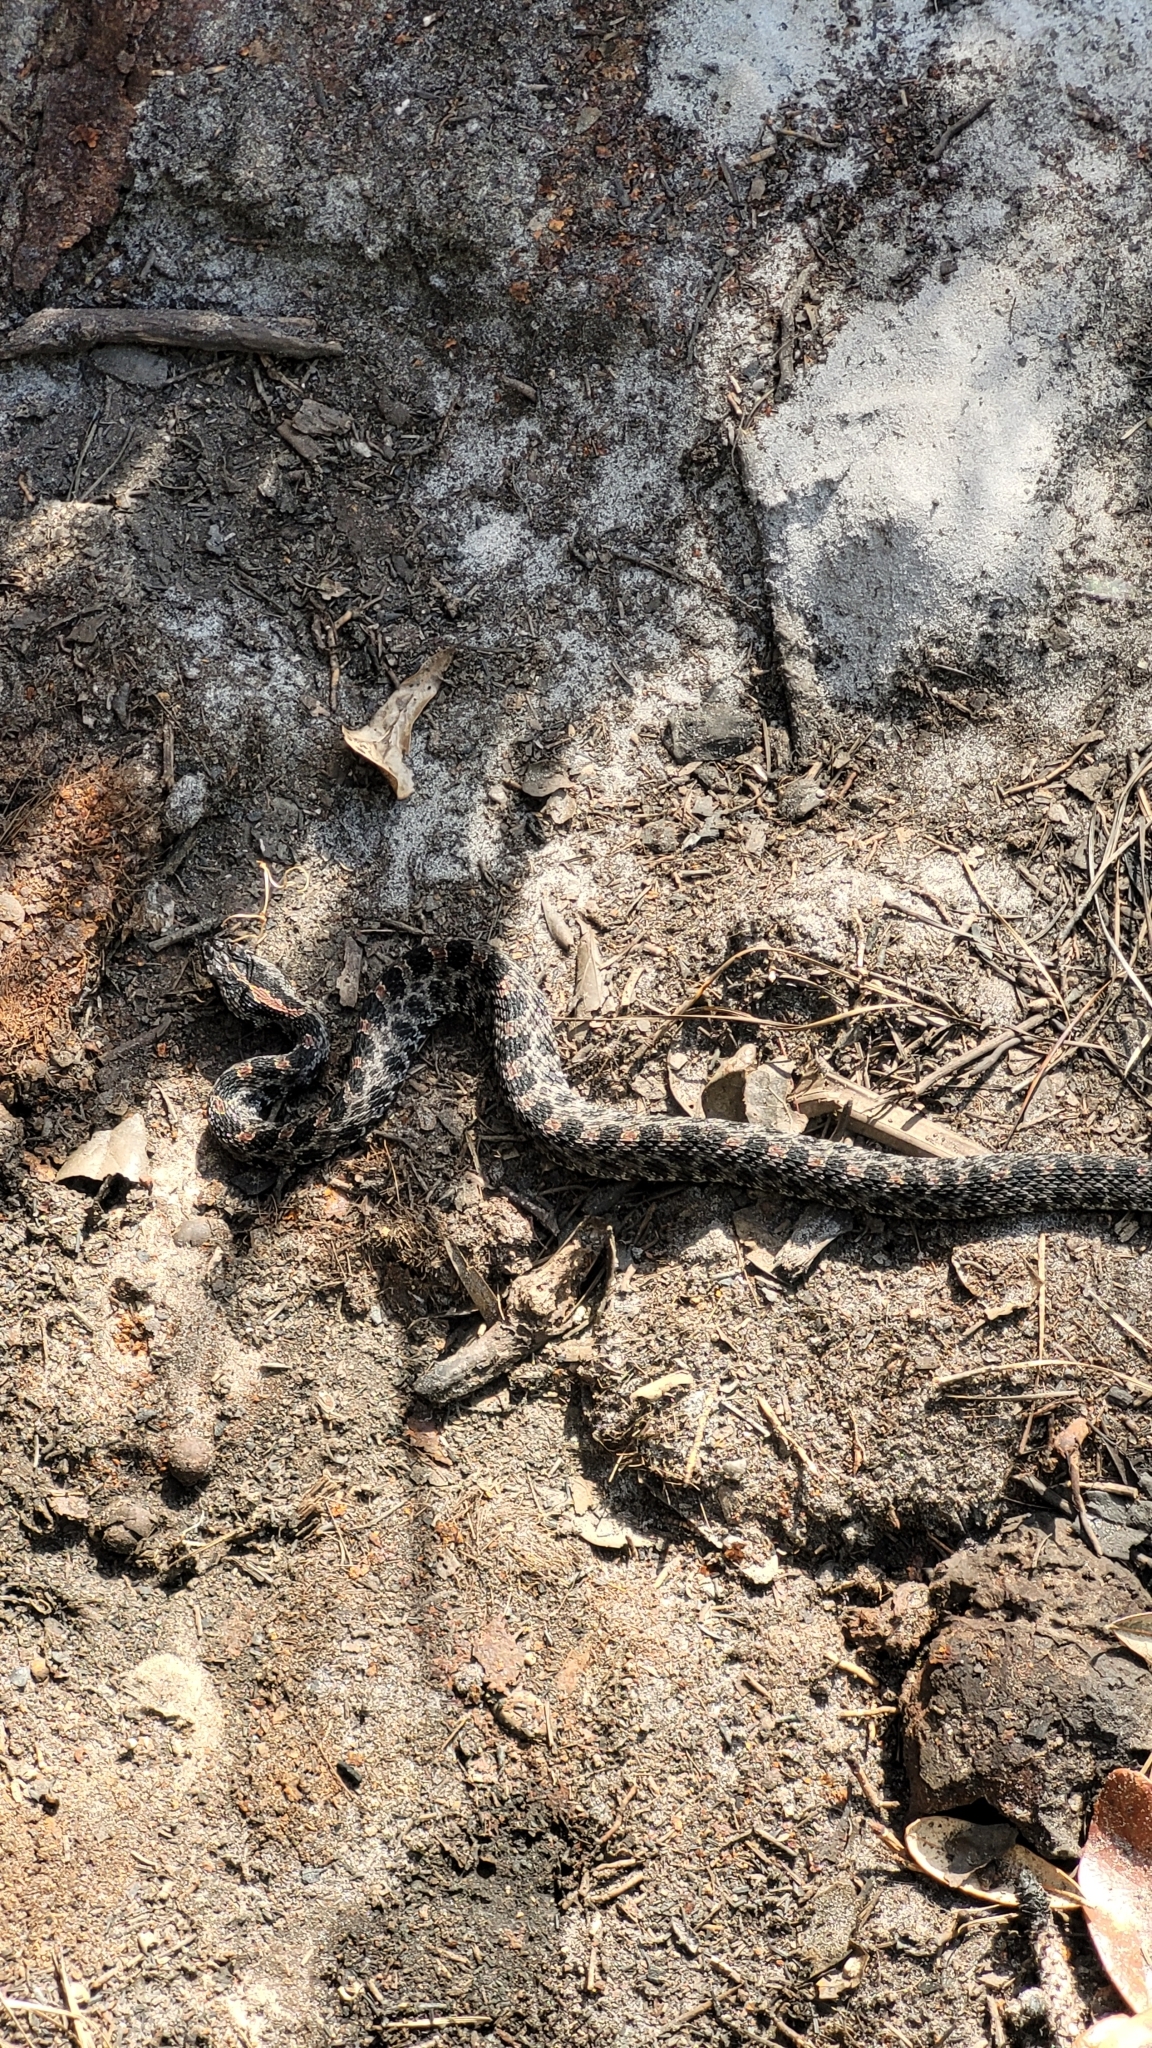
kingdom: Animalia
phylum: Chordata
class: Squamata
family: Viperidae
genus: Sistrurus
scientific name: Sistrurus miliarius
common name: Pygmy rattlesnake
